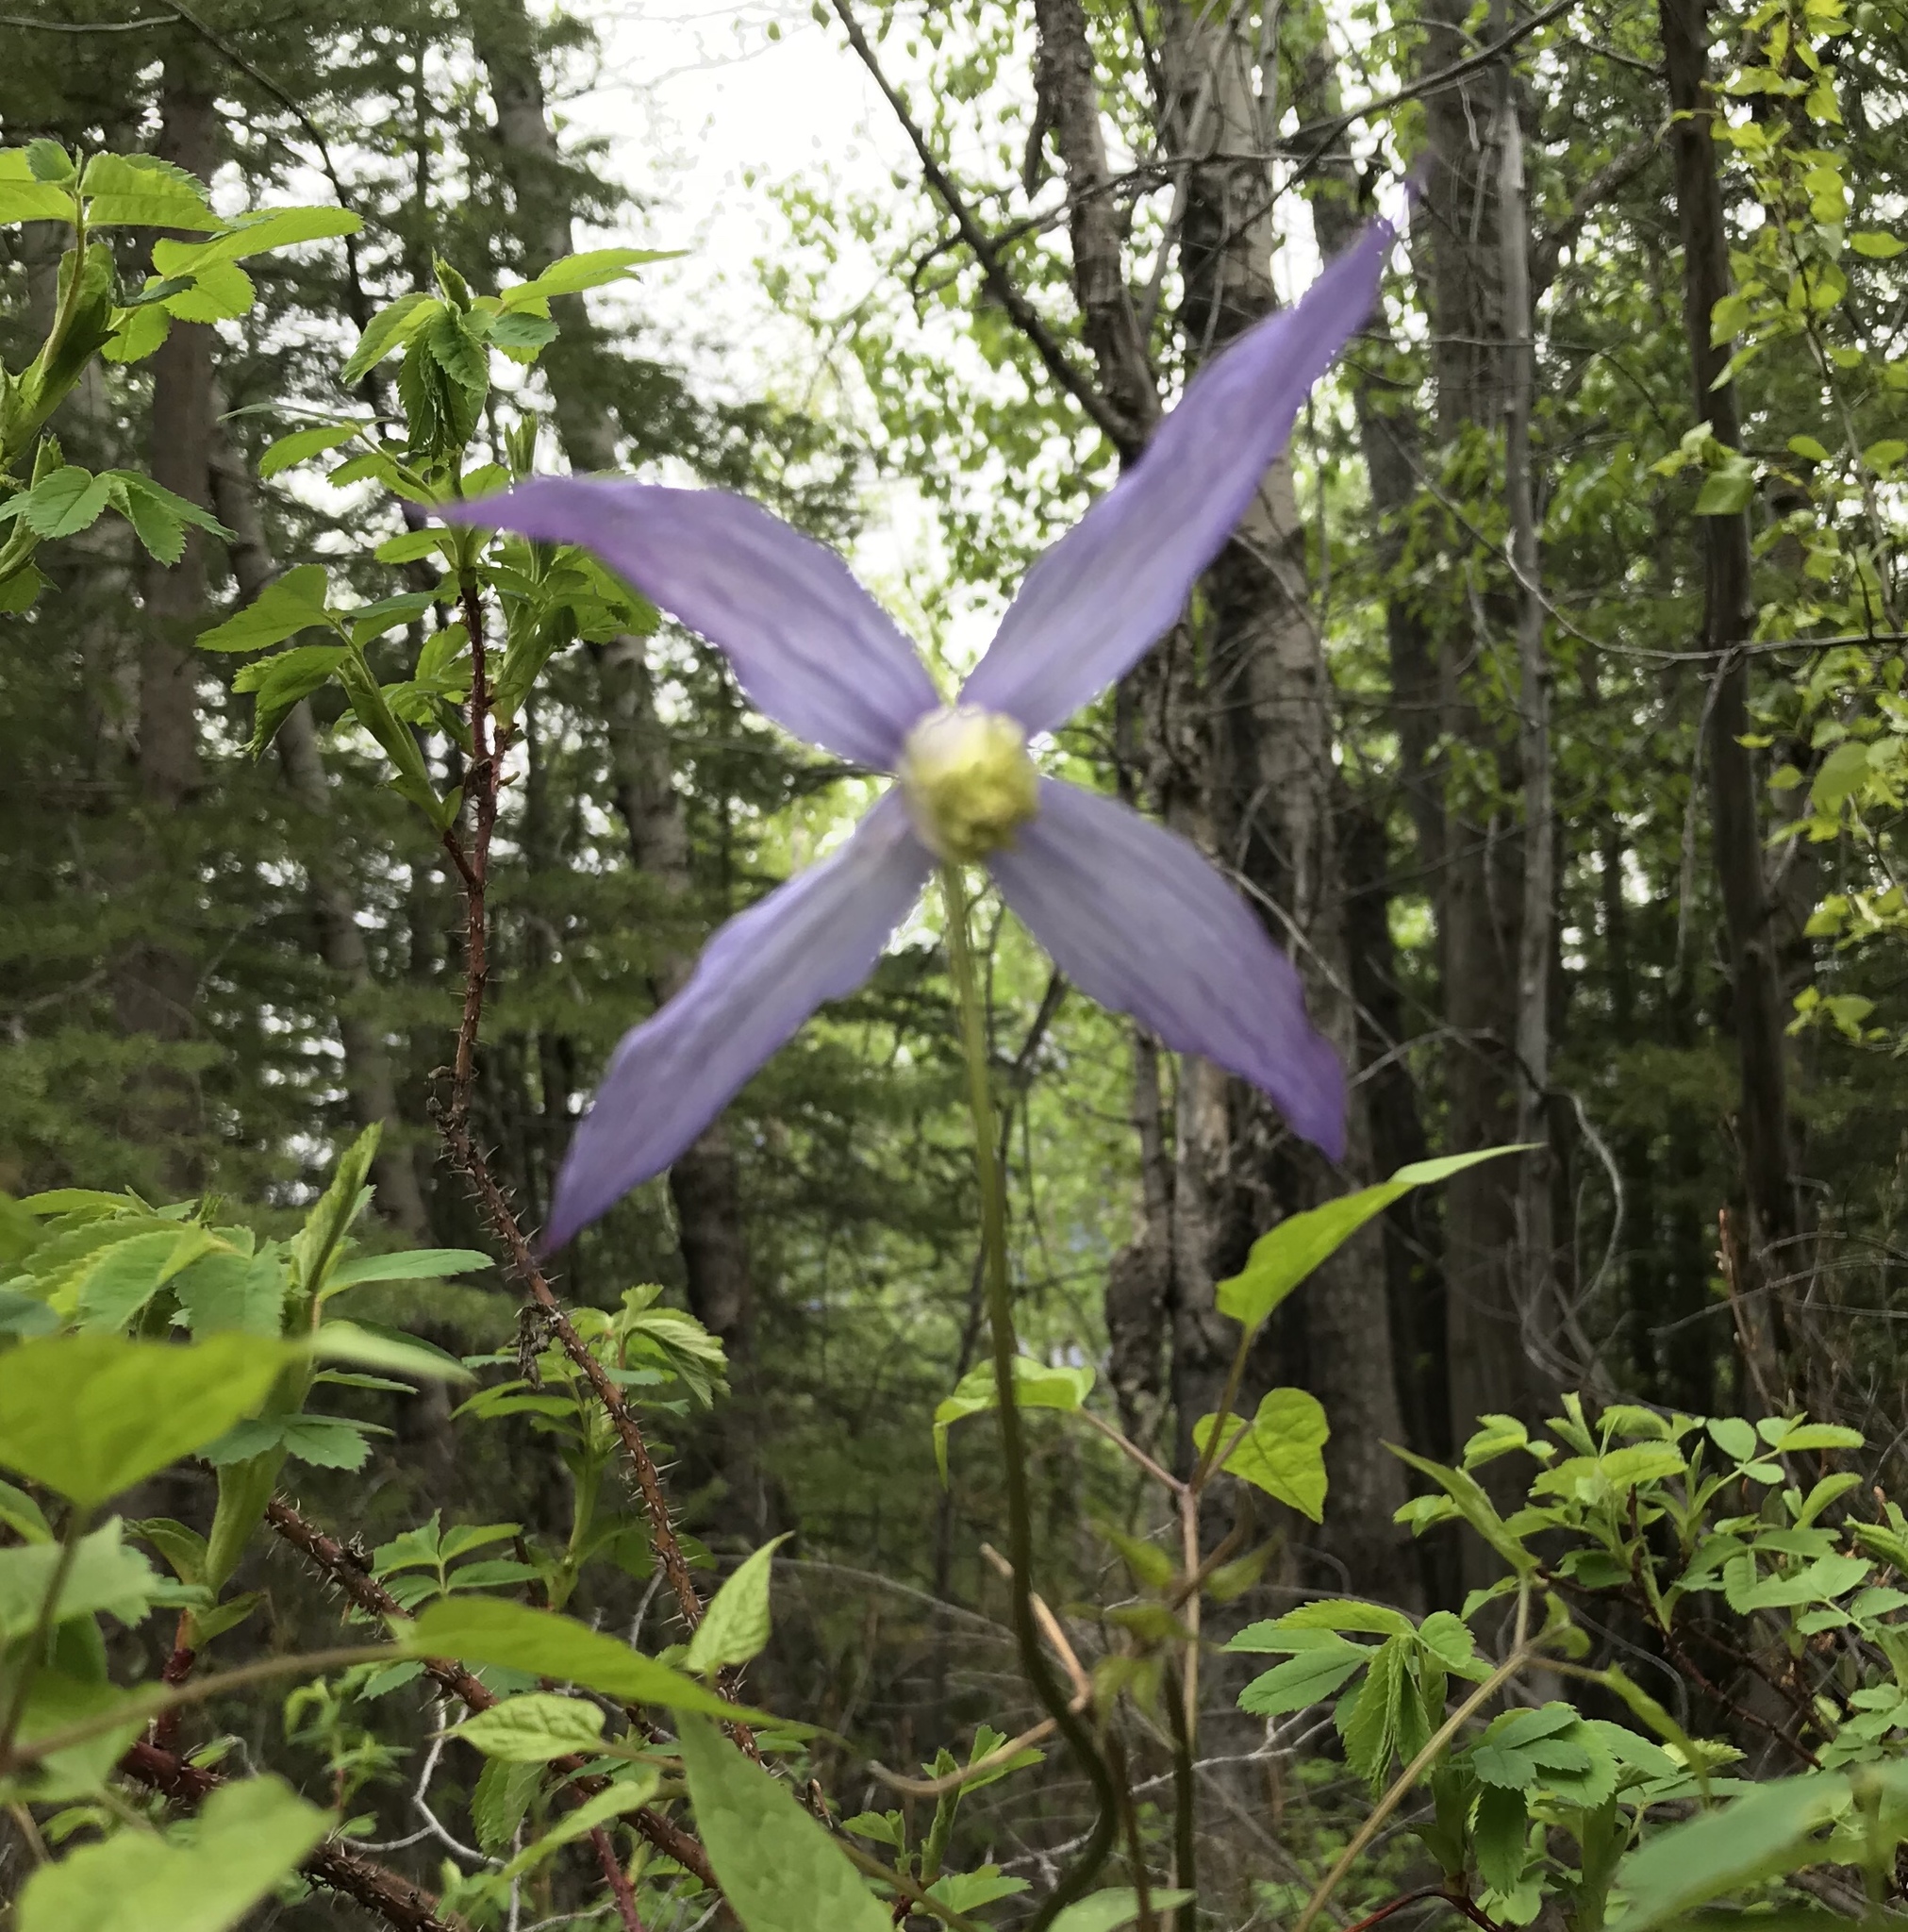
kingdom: Plantae
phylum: Tracheophyta
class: Magnoliopsida
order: Ranunculales
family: Ranunculaceae
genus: Clematis
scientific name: Clematis occidentalis
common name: Purple clematis
